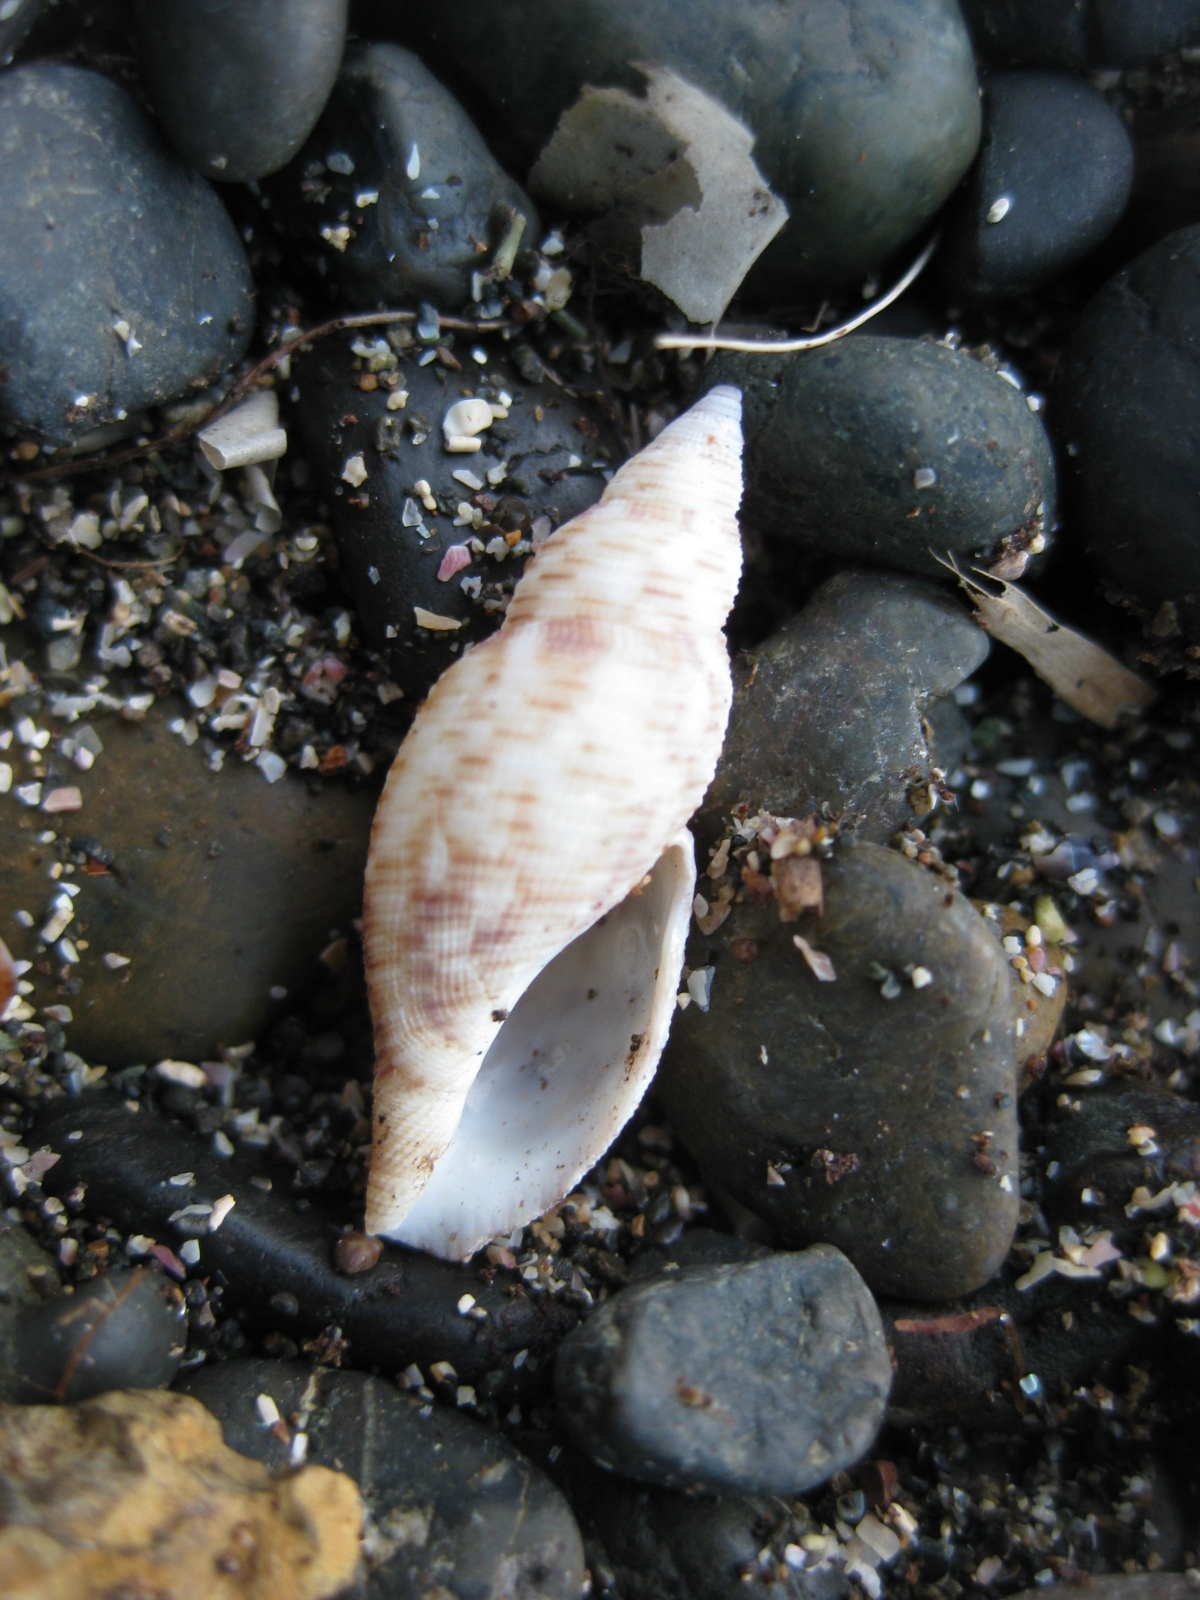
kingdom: Animalia
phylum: Mollusca
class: Gastropoda
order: Neogastropoda
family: Raphitomidae
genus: Daphnella
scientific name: Daphnella cancellata
